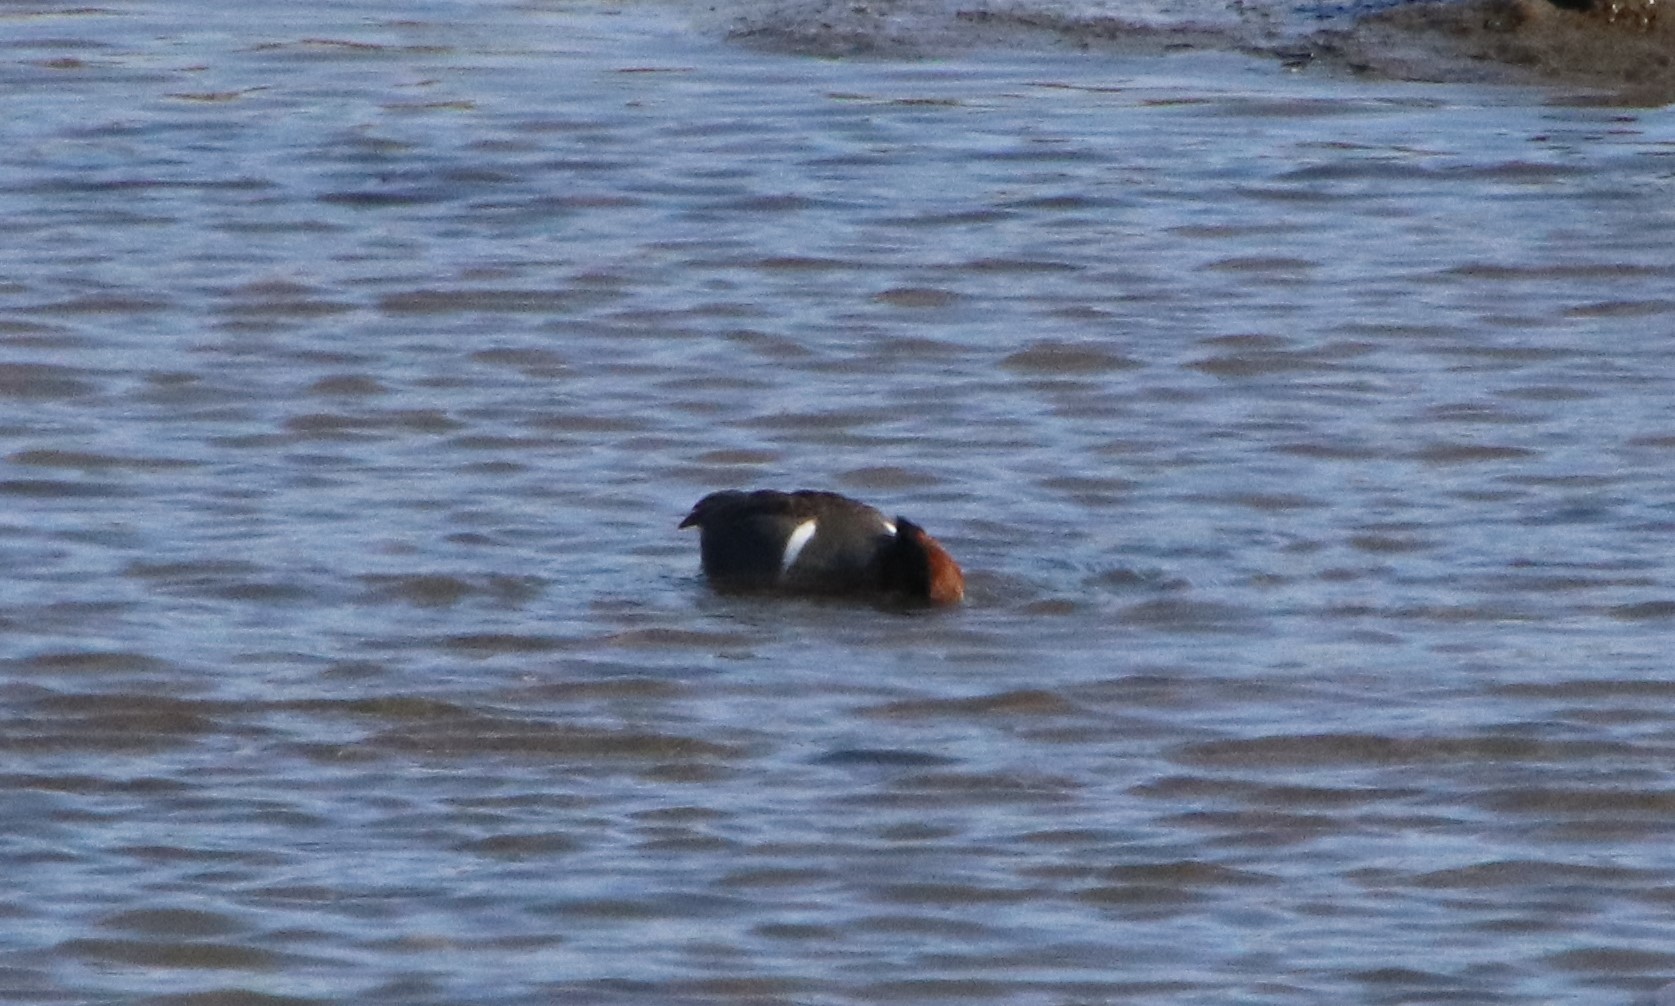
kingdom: Animalia
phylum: Chordata
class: Aves
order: Anseriformes
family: Anatidae
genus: Anas
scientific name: Anas crecca
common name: Eurasian teal
